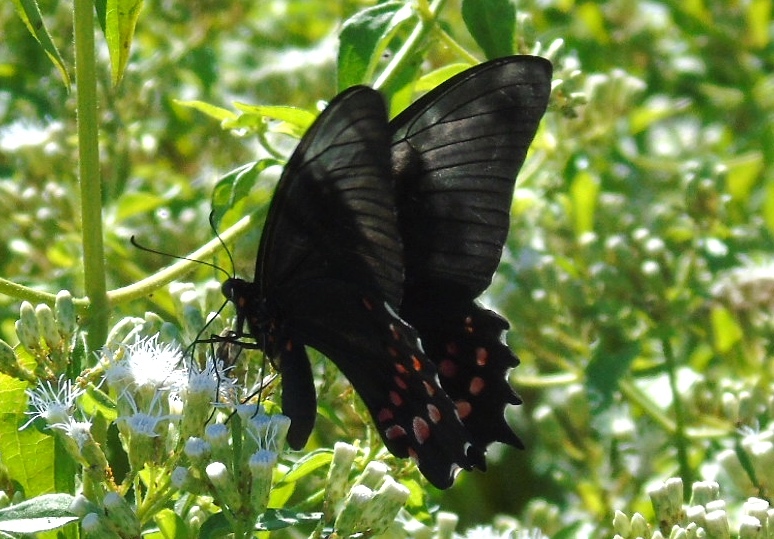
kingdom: Animalia
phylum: Arthropoda
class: Insecta
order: Lepidoptera
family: Papilionidae
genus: Heraclides
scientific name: Heraclides rogeri
